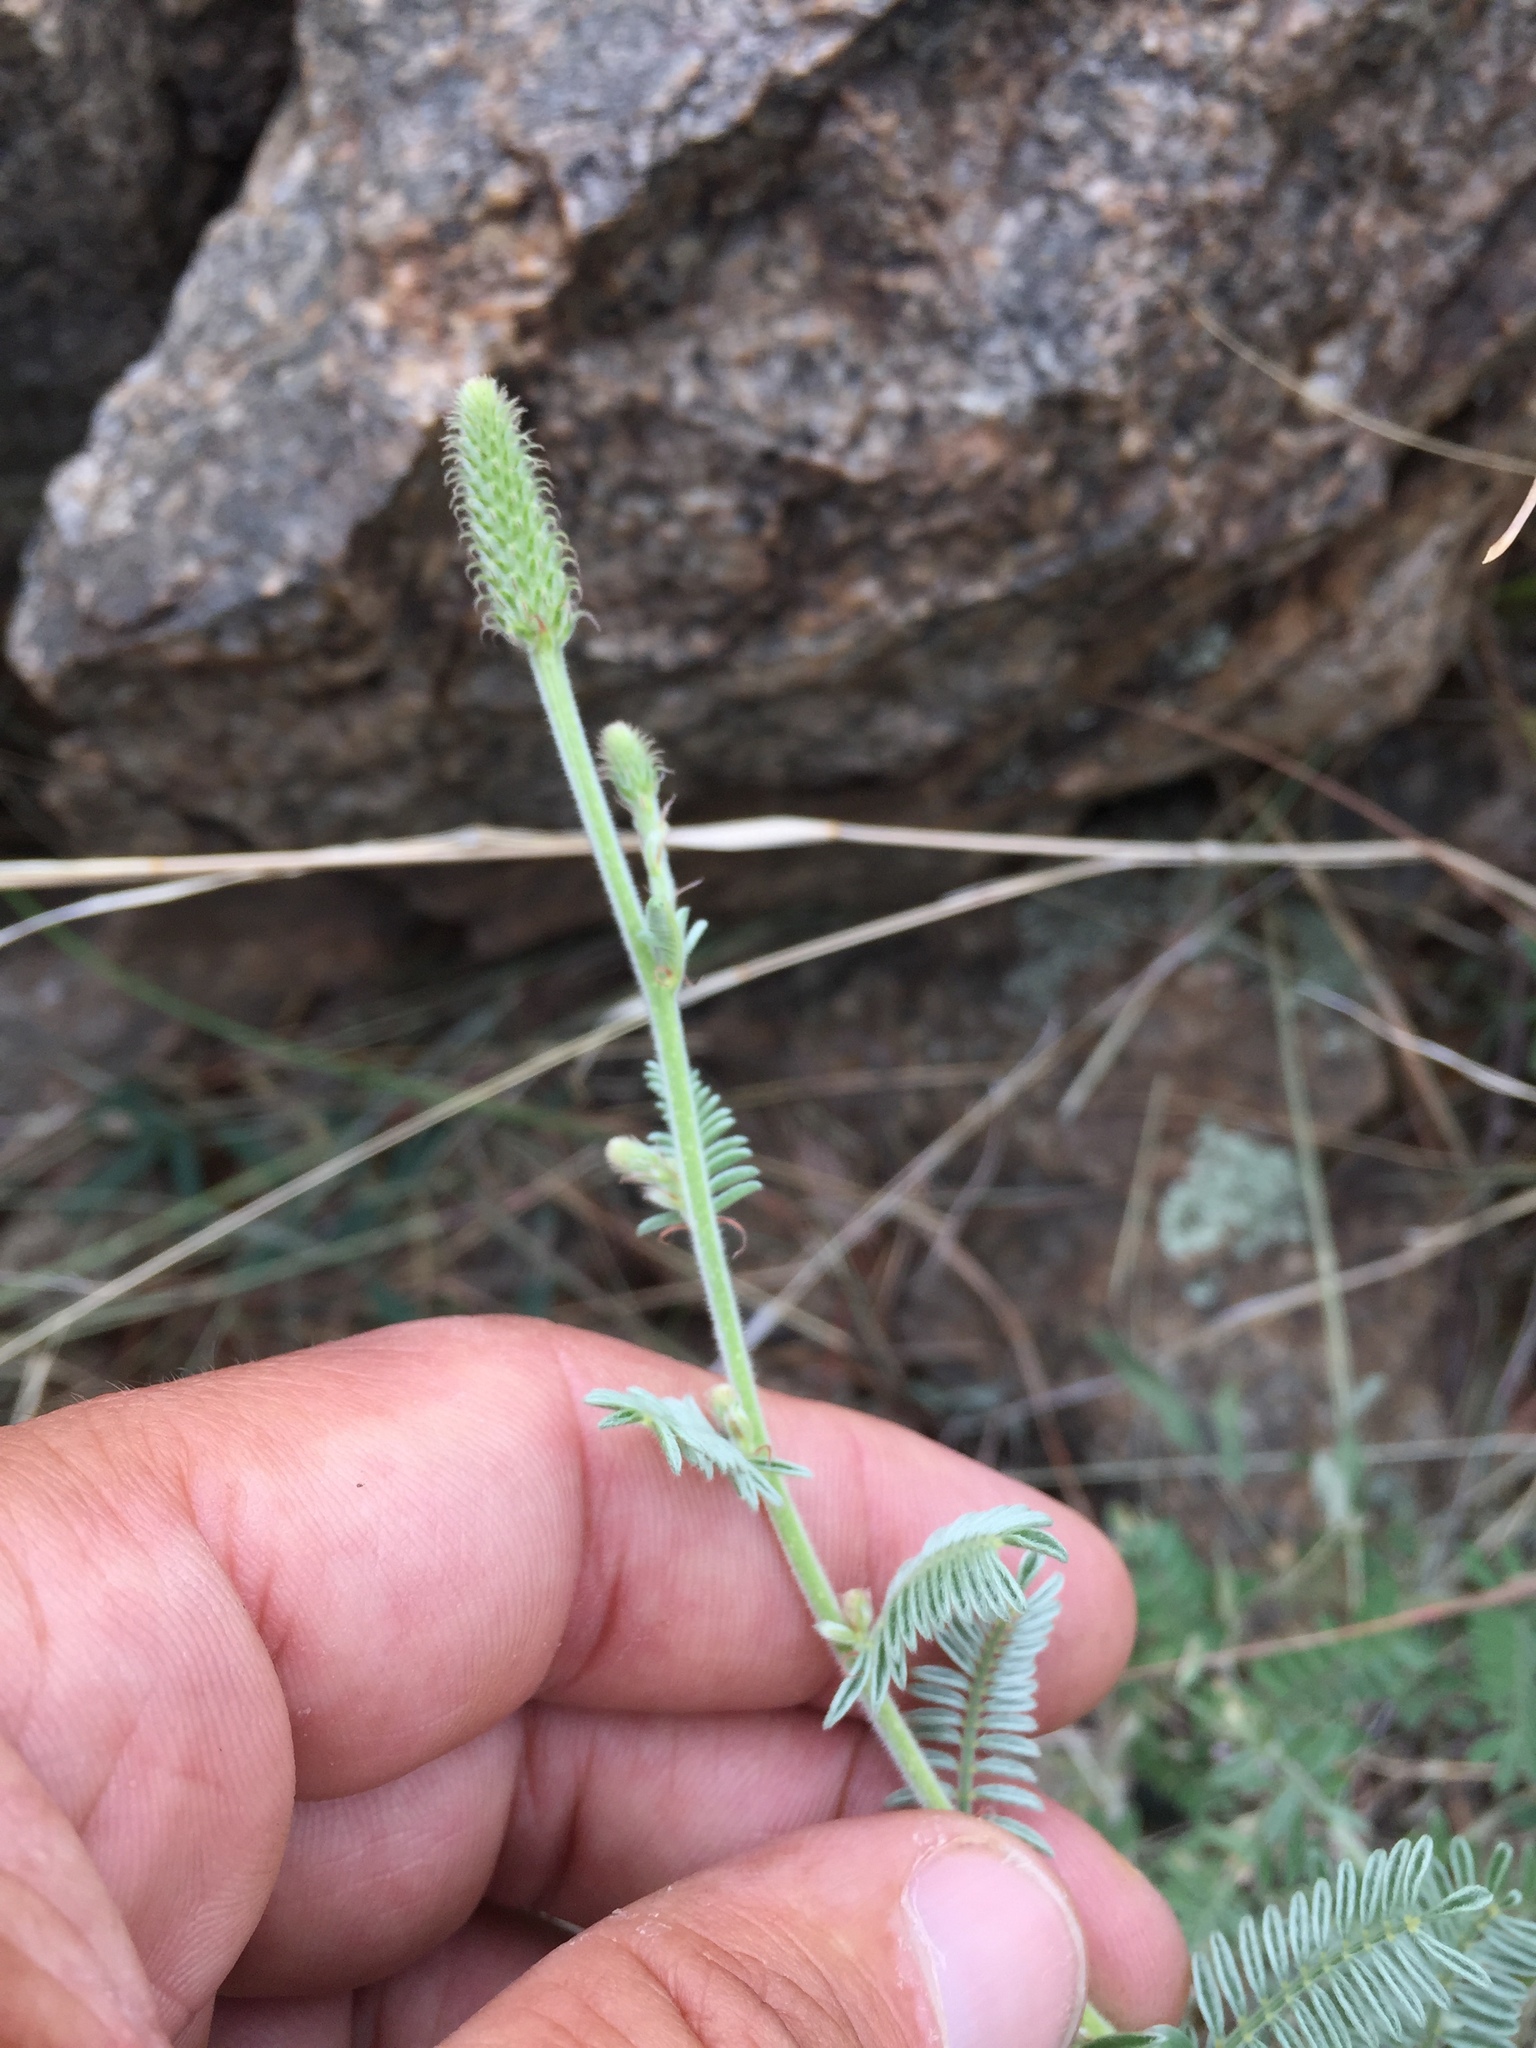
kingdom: Plantae
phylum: Tracheophyta
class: Magnoliopsida
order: Fabales
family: Fabaceae
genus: Dalea
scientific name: Dalea albiflora
